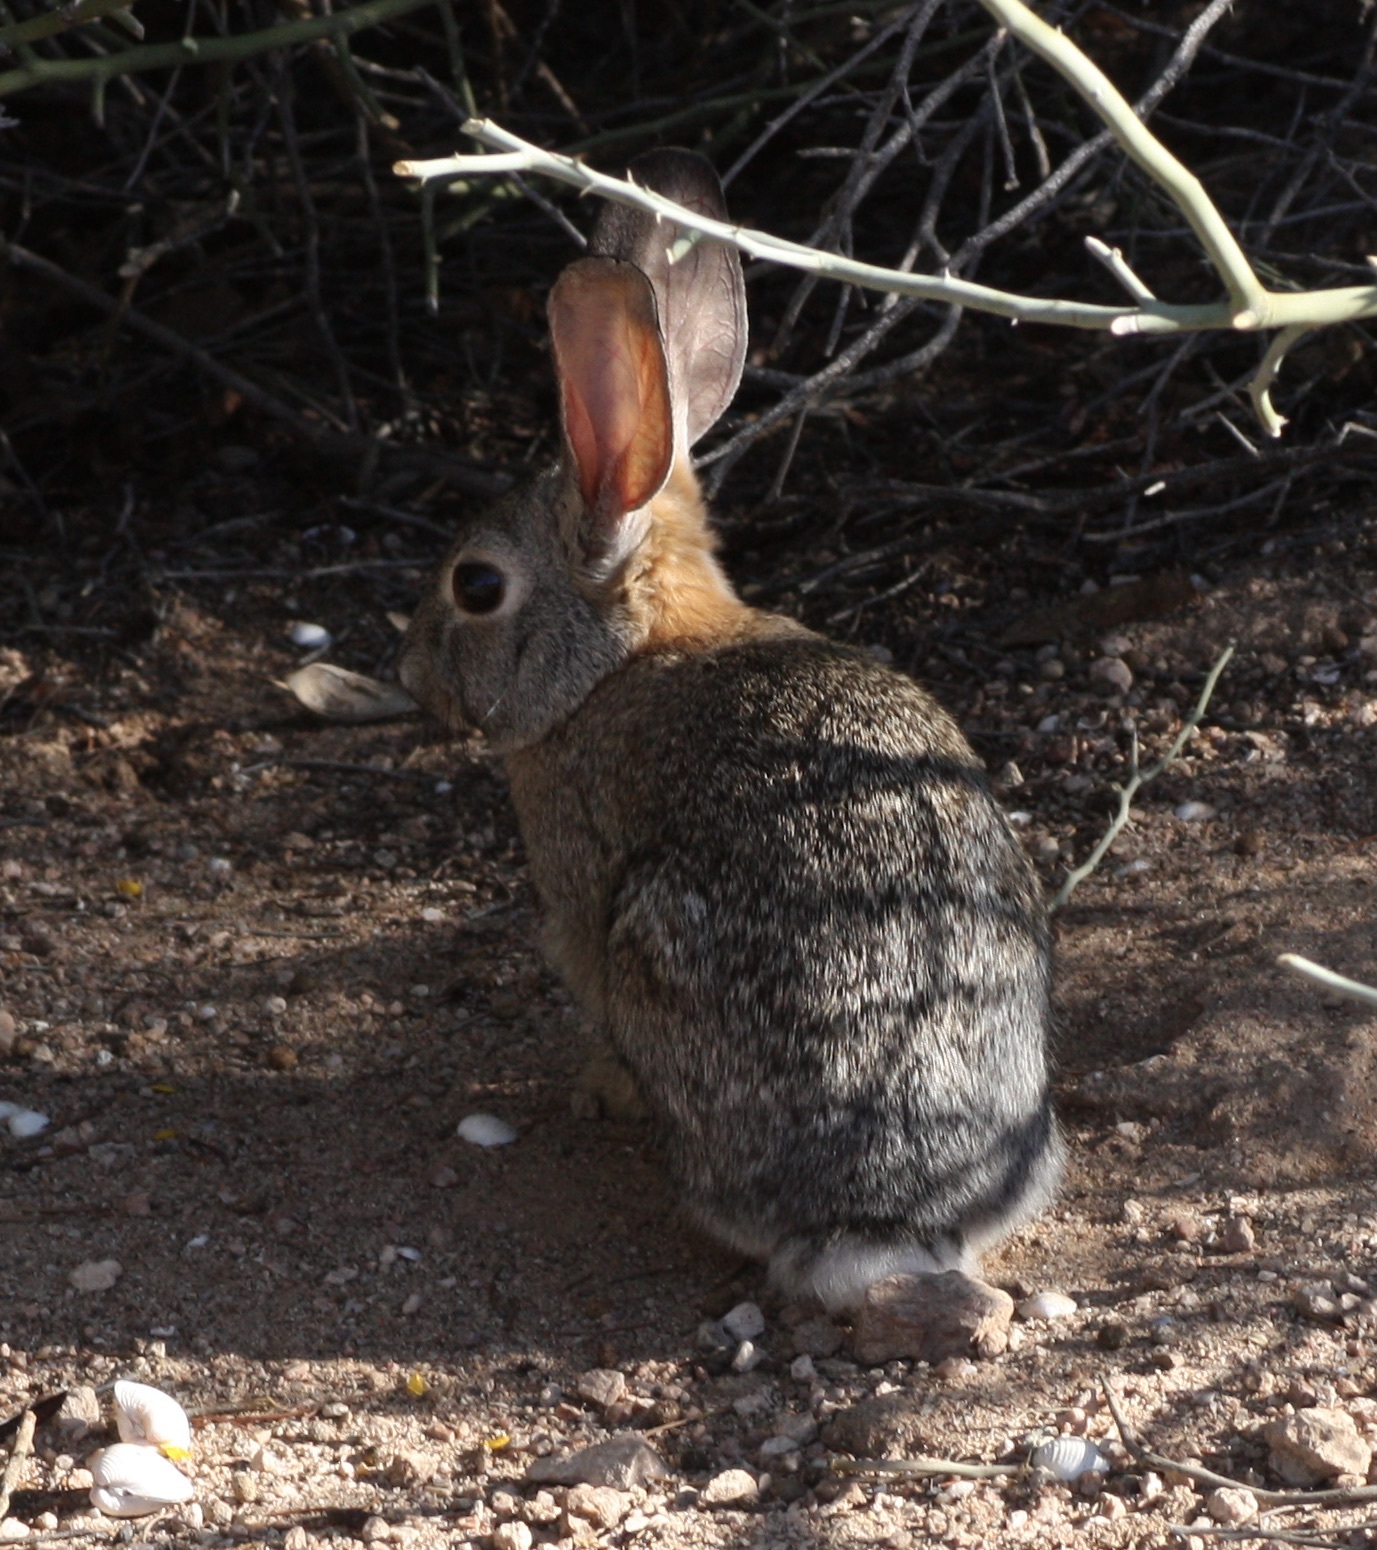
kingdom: Animalia
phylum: Chordata
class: Mammalia
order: Lagomorpha
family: Leporidae
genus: Sylvilagus
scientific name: Sylvilagus audubonii
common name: Desert cottontail
